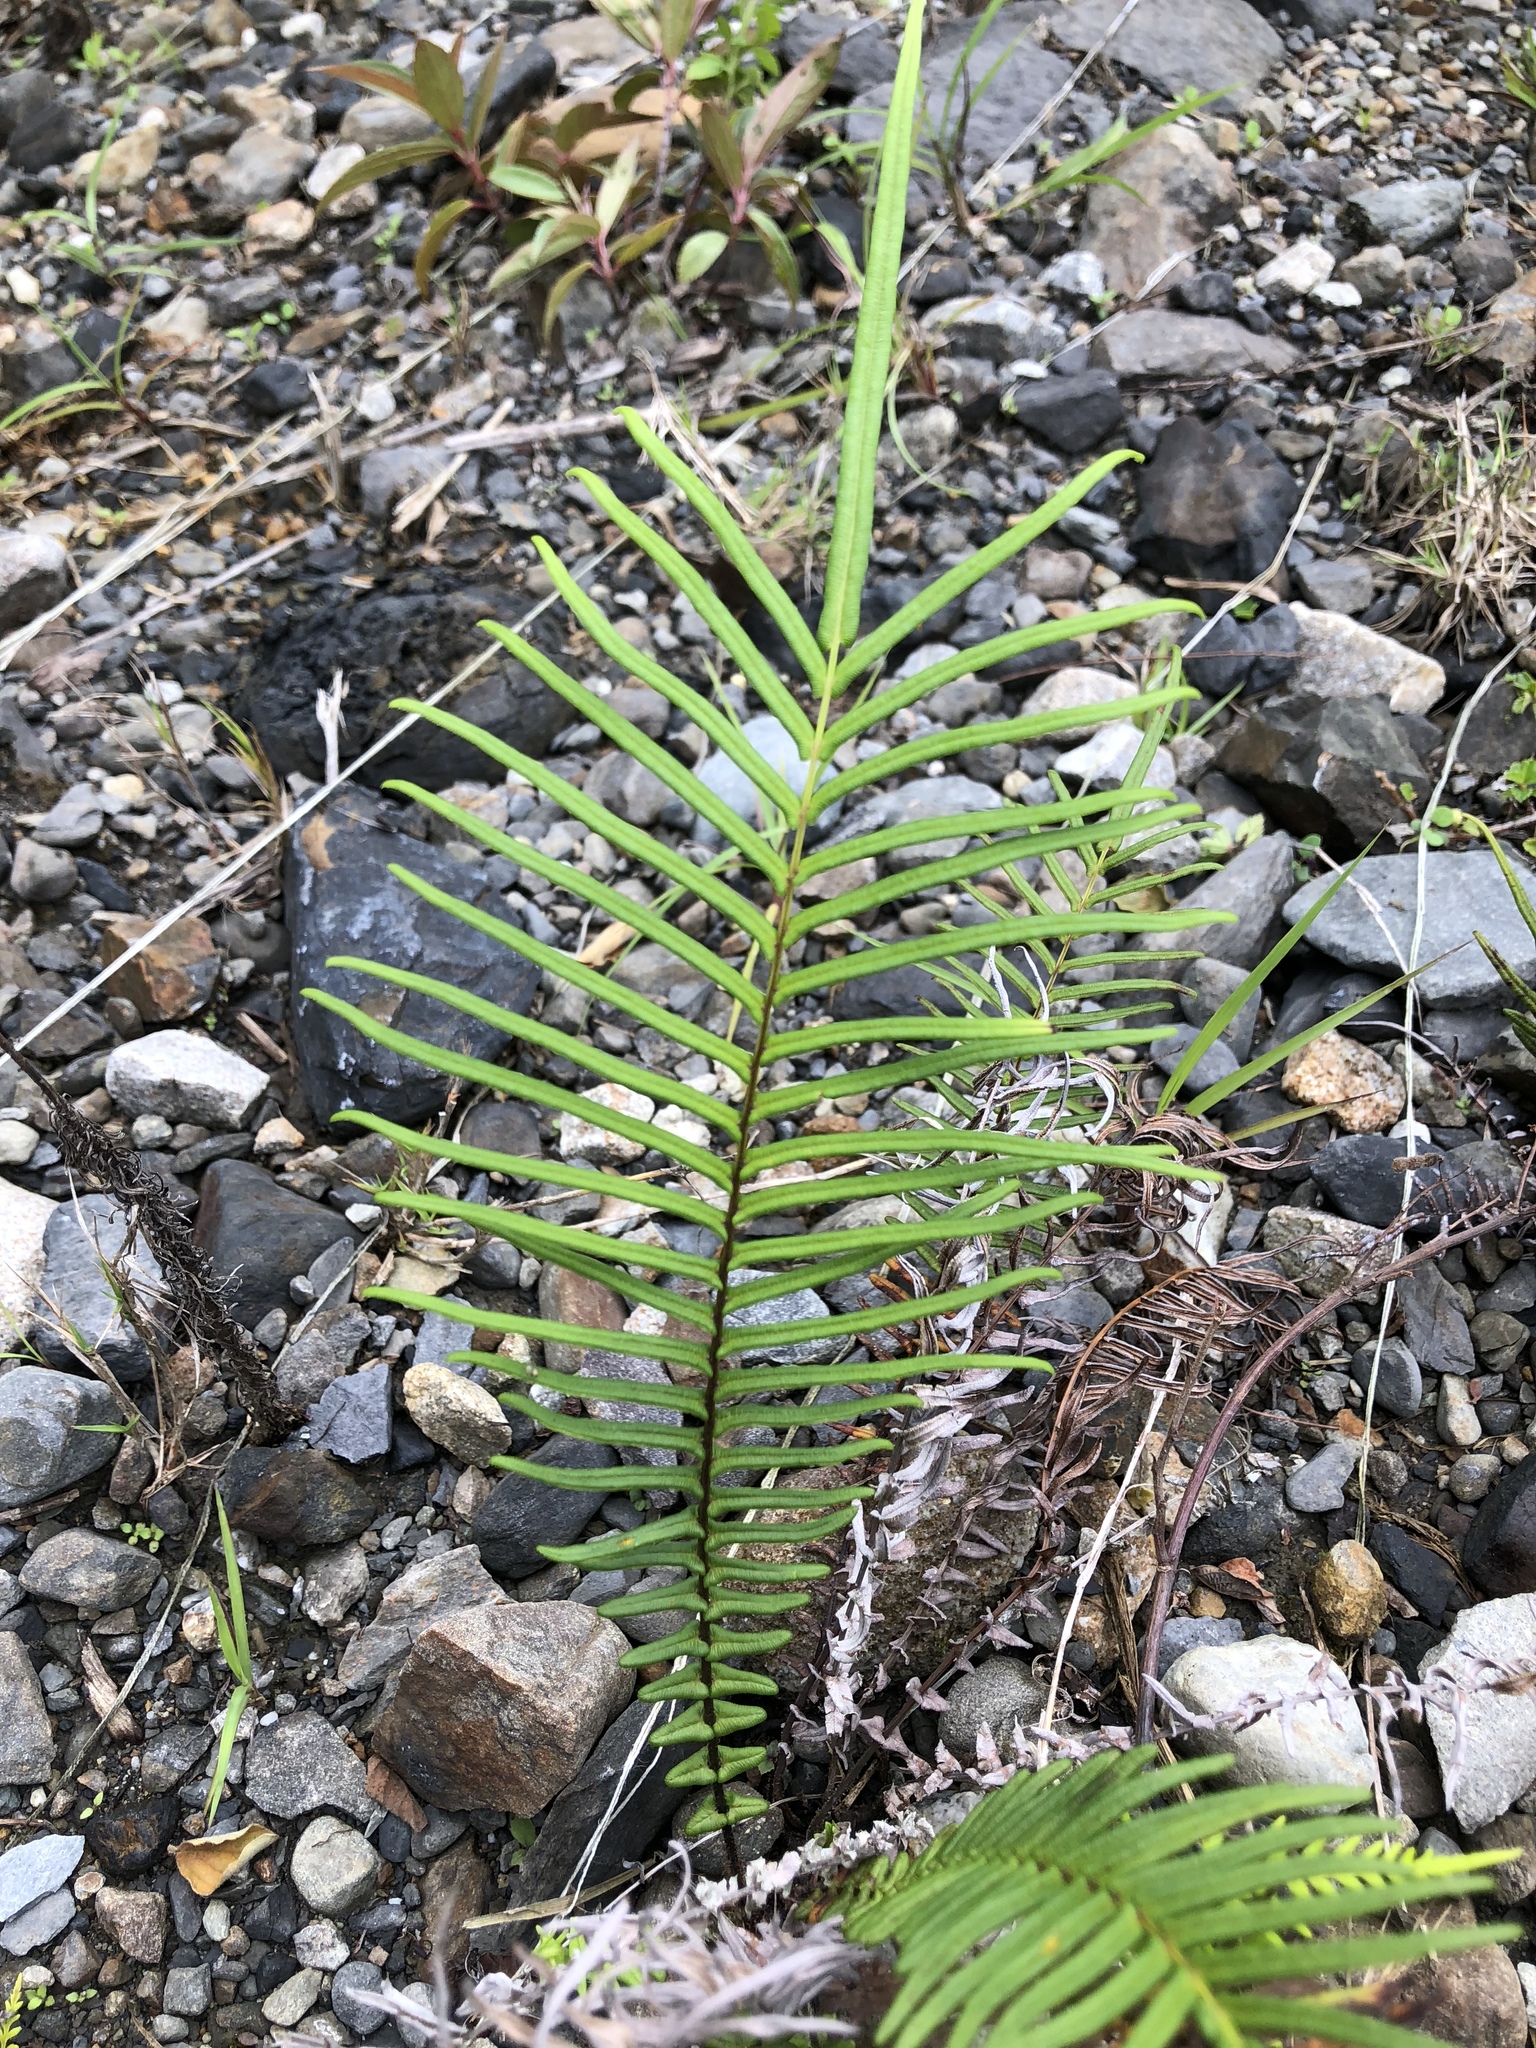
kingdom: Plantae
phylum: Tracheophyta
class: Polypodiopsida
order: Polypodiales
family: Pteridaceae
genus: Pteris
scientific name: Pteris vittata
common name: Ladder brake
